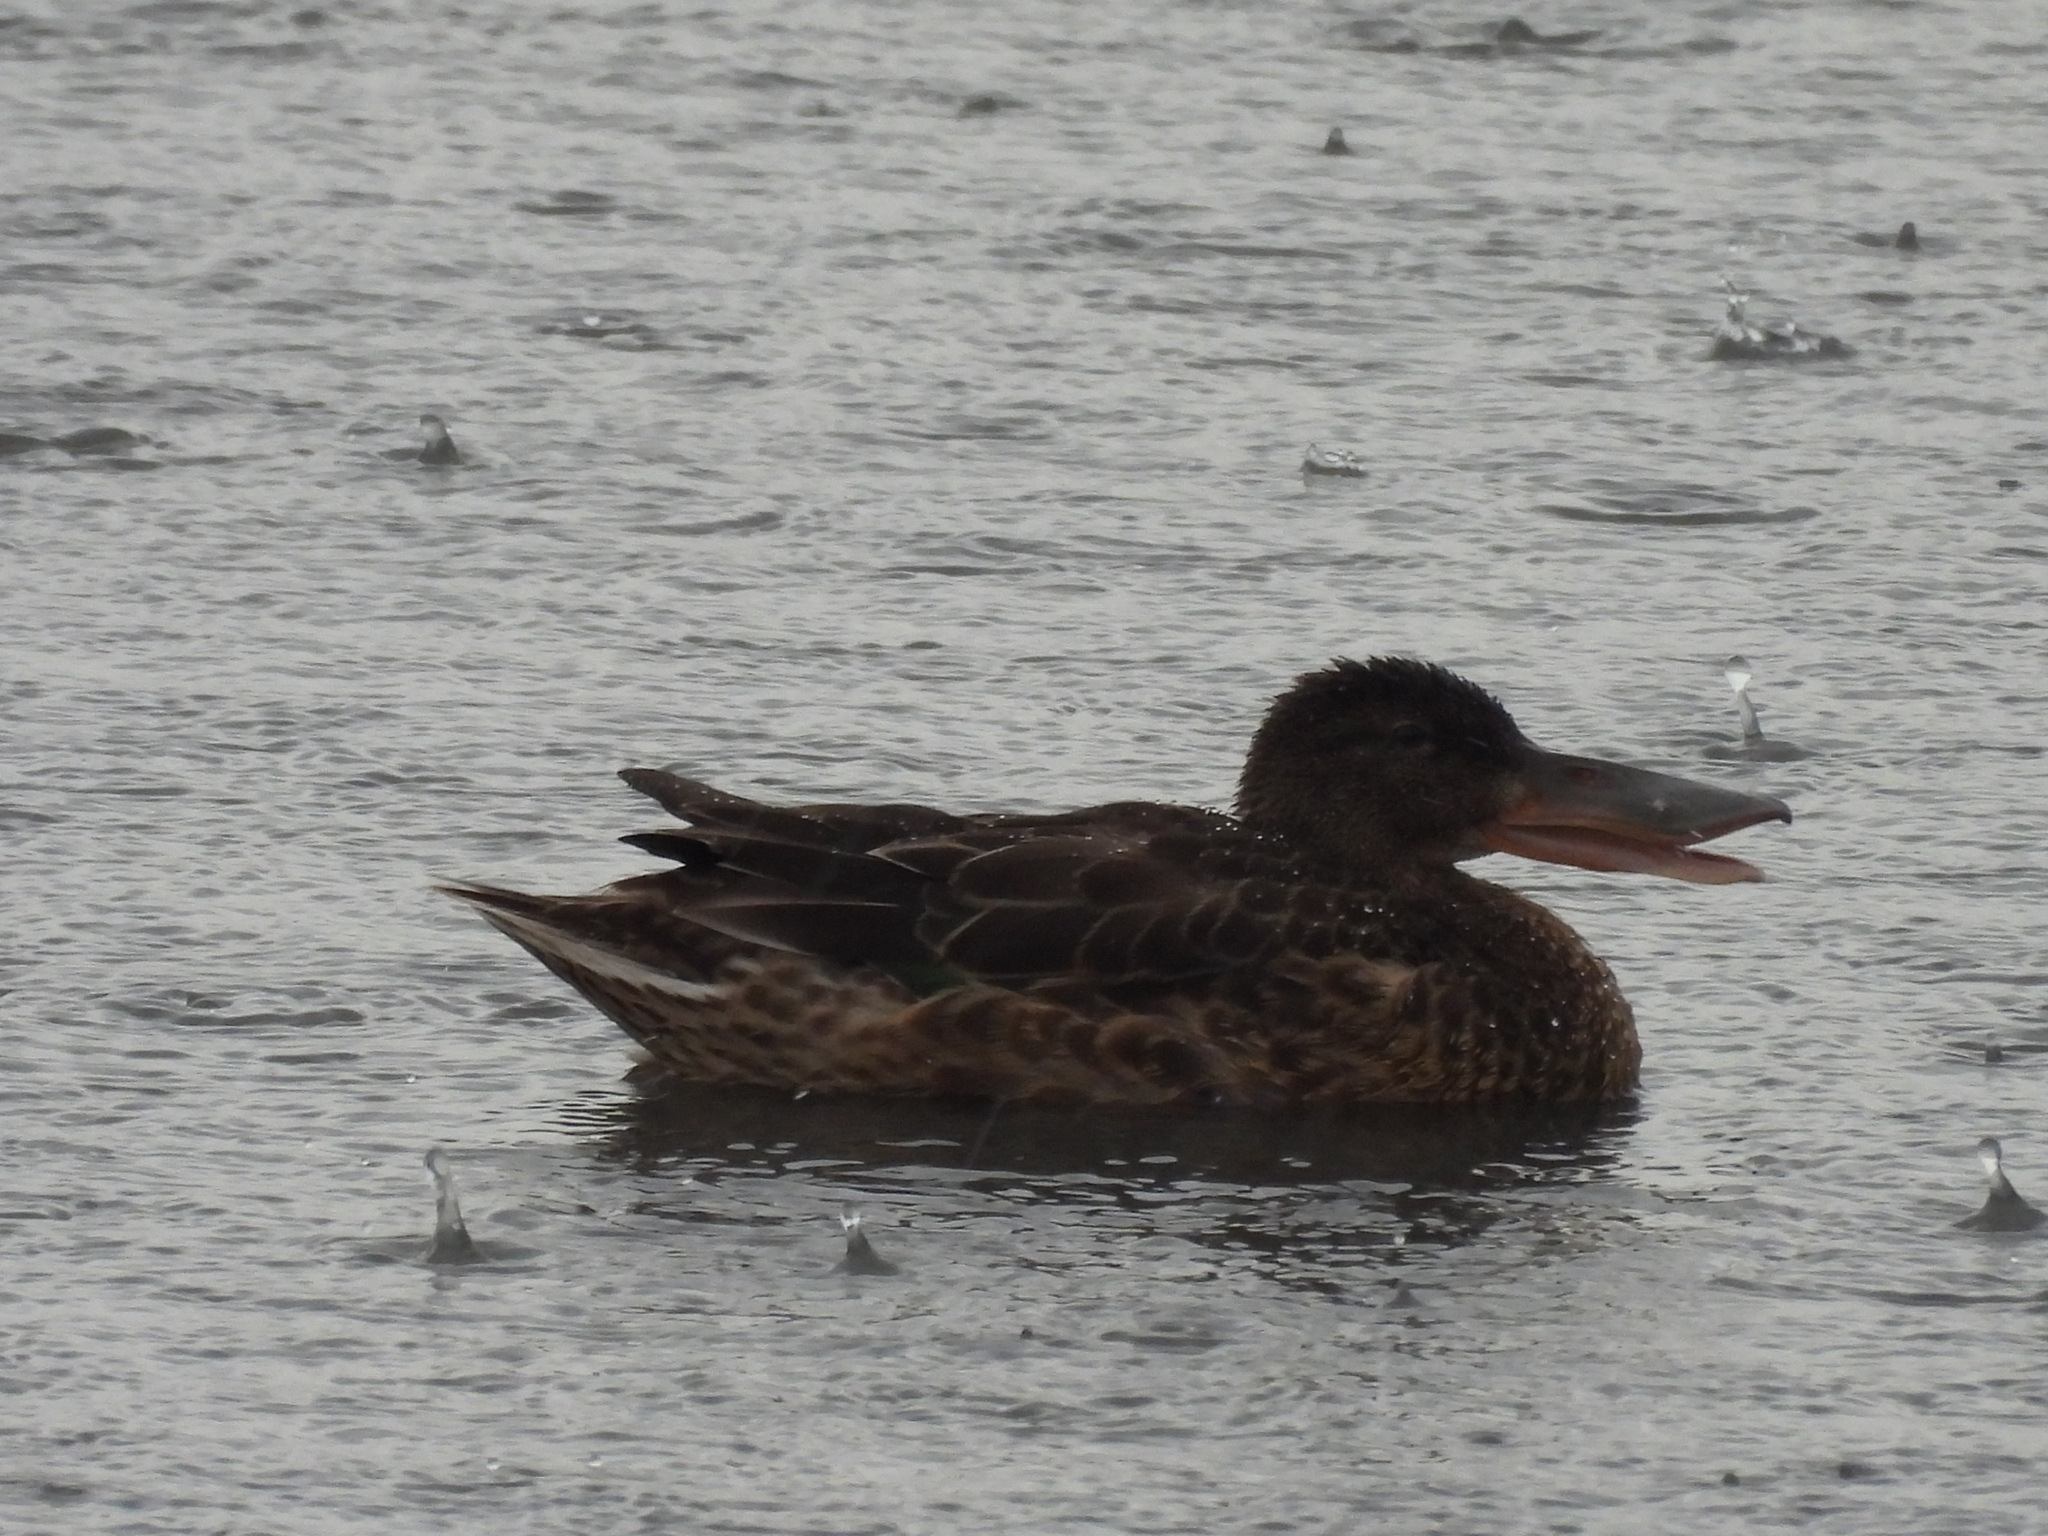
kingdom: Animalia
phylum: Chordata
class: Aves
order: Anseriformes
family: Anatidae
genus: Spatula
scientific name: Spatula clypeata
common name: Northern shoveler
